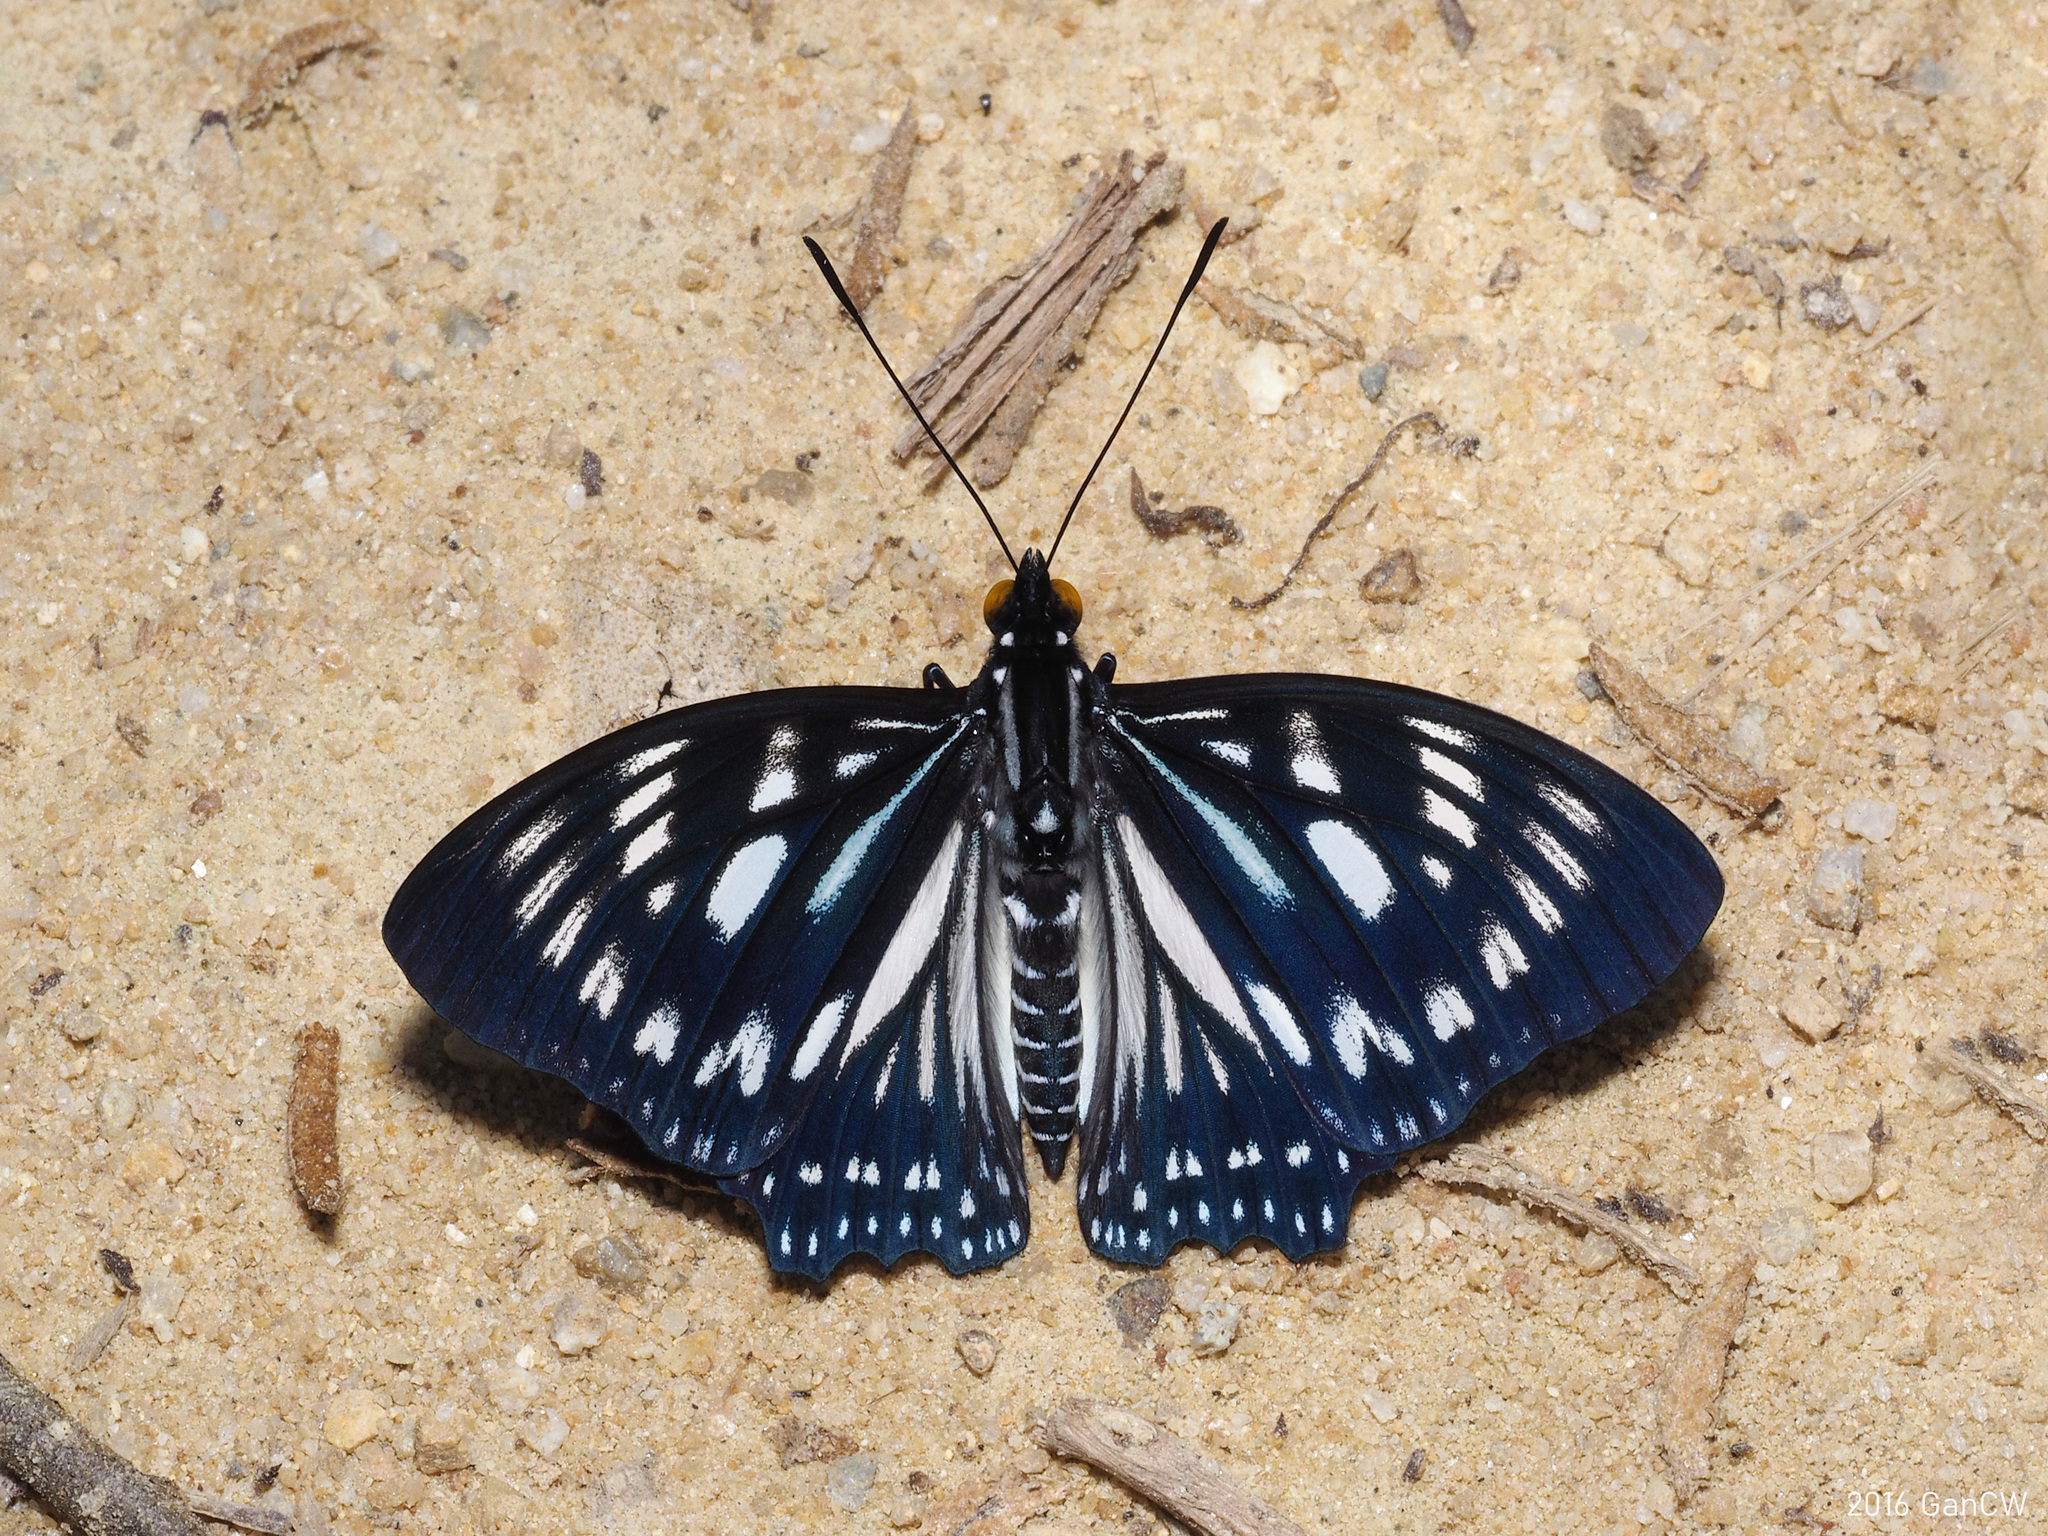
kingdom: Animalia
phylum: Arthropoda
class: Insecta
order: Lepidoptera
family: Nymphalidae
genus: Euripus
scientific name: Euripus nyctelius
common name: Courtesan
